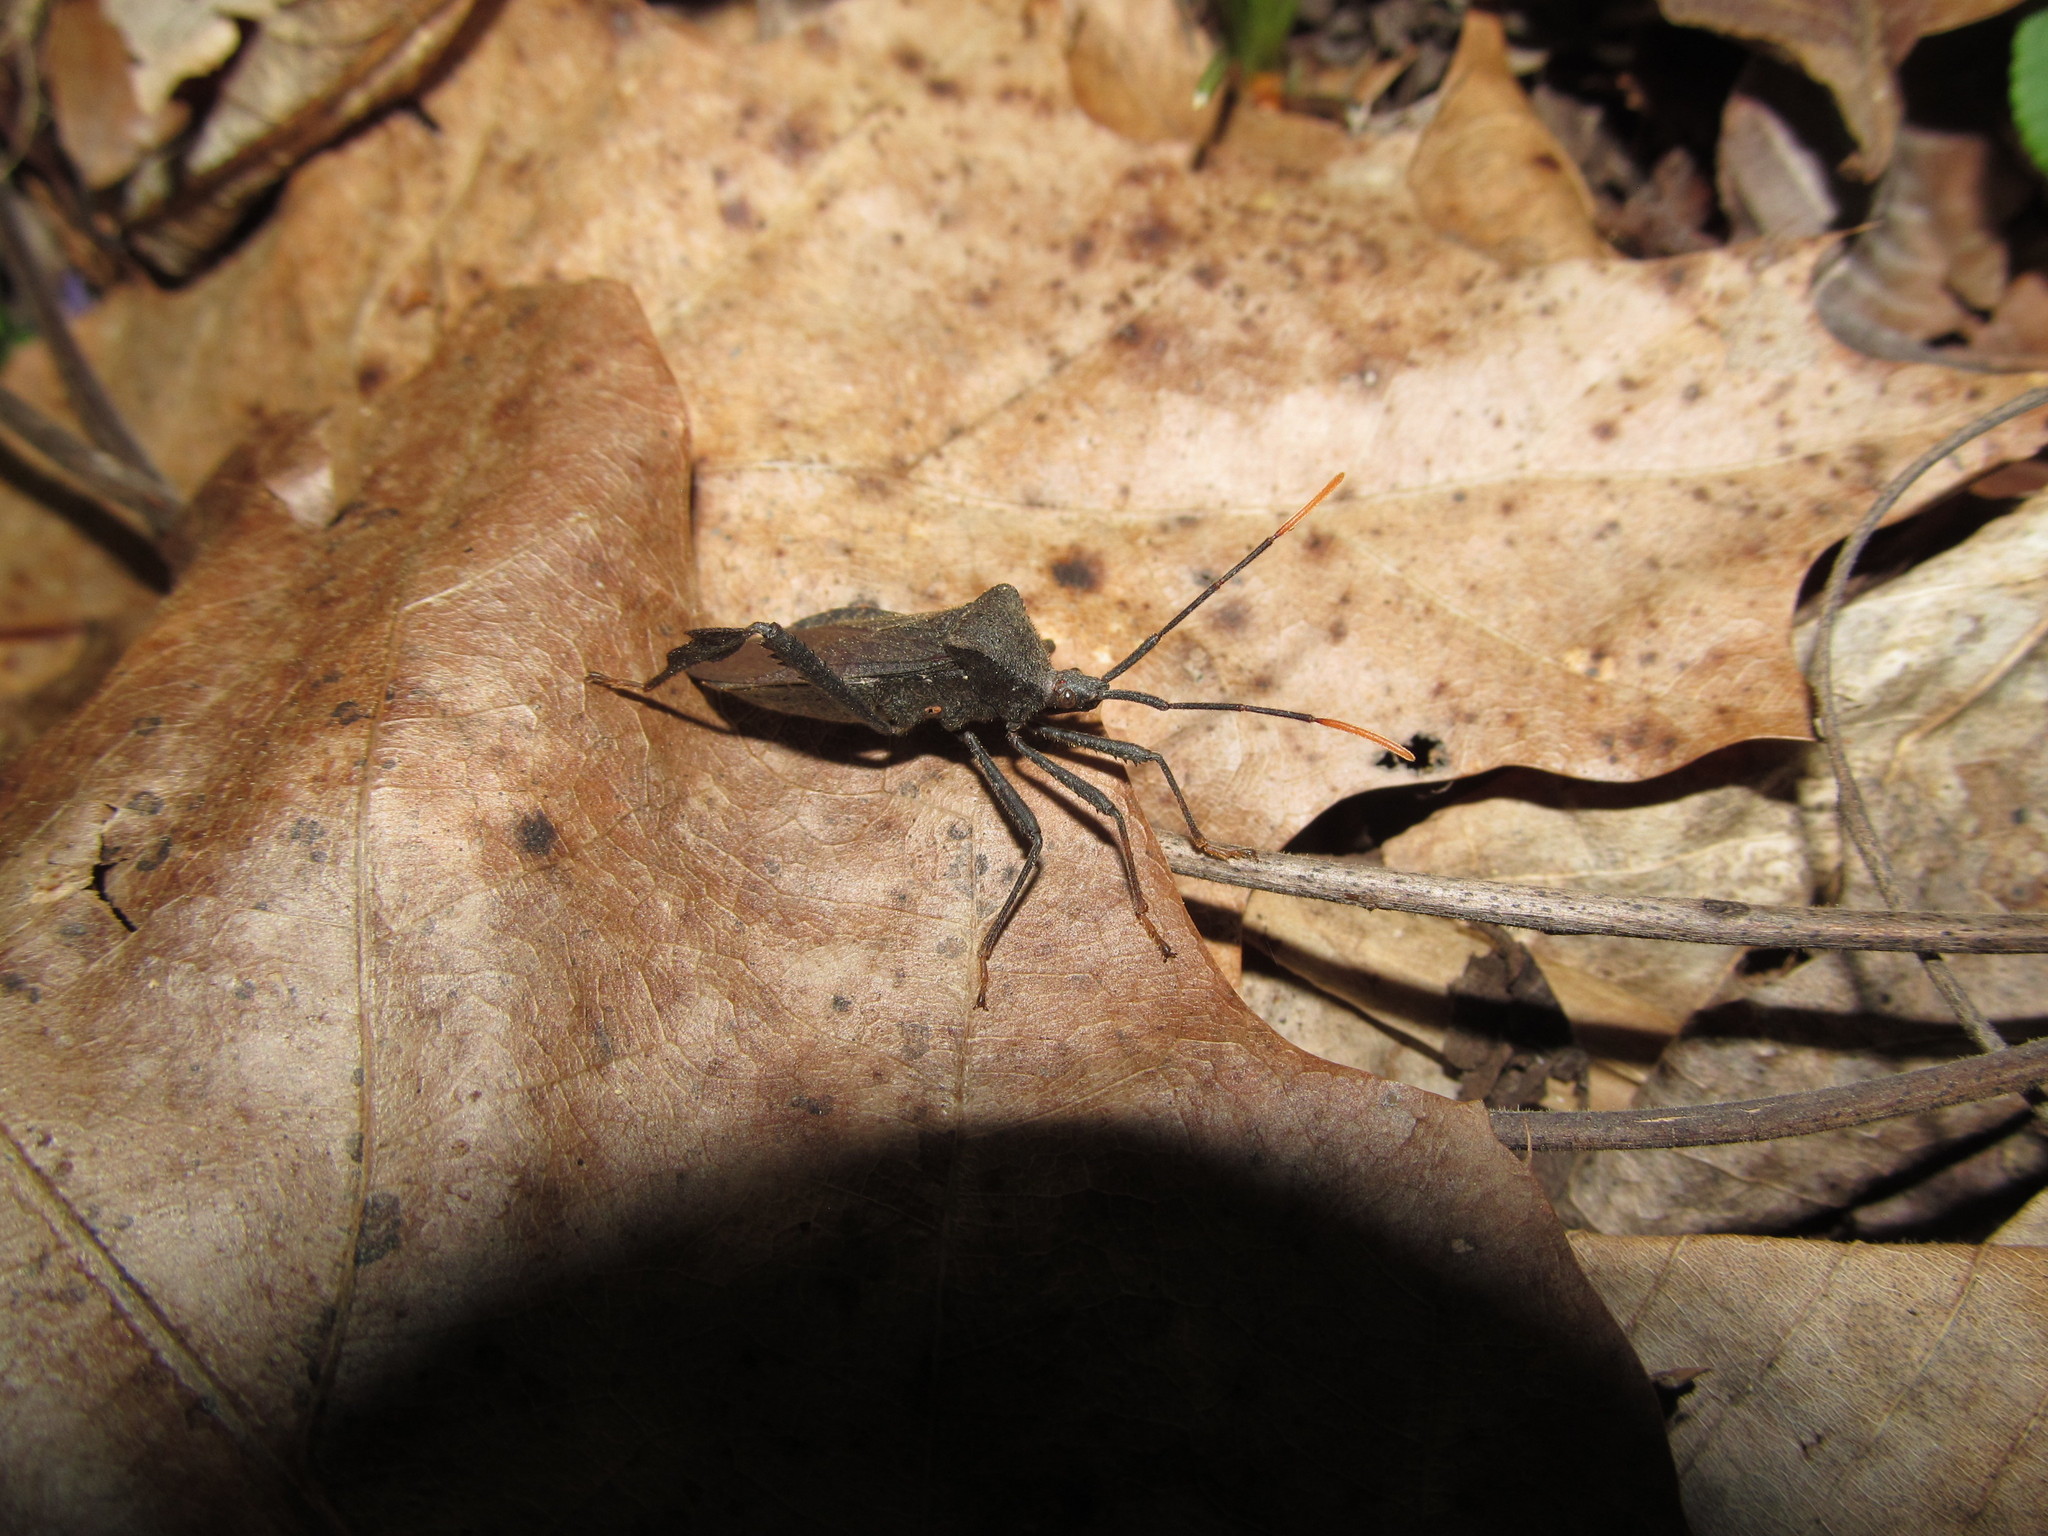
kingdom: Animalia
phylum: Arthropoda
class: Insecta
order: Hemiptera
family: Coreidae
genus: Acanthocephala
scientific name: Acanthocephala terminalis
